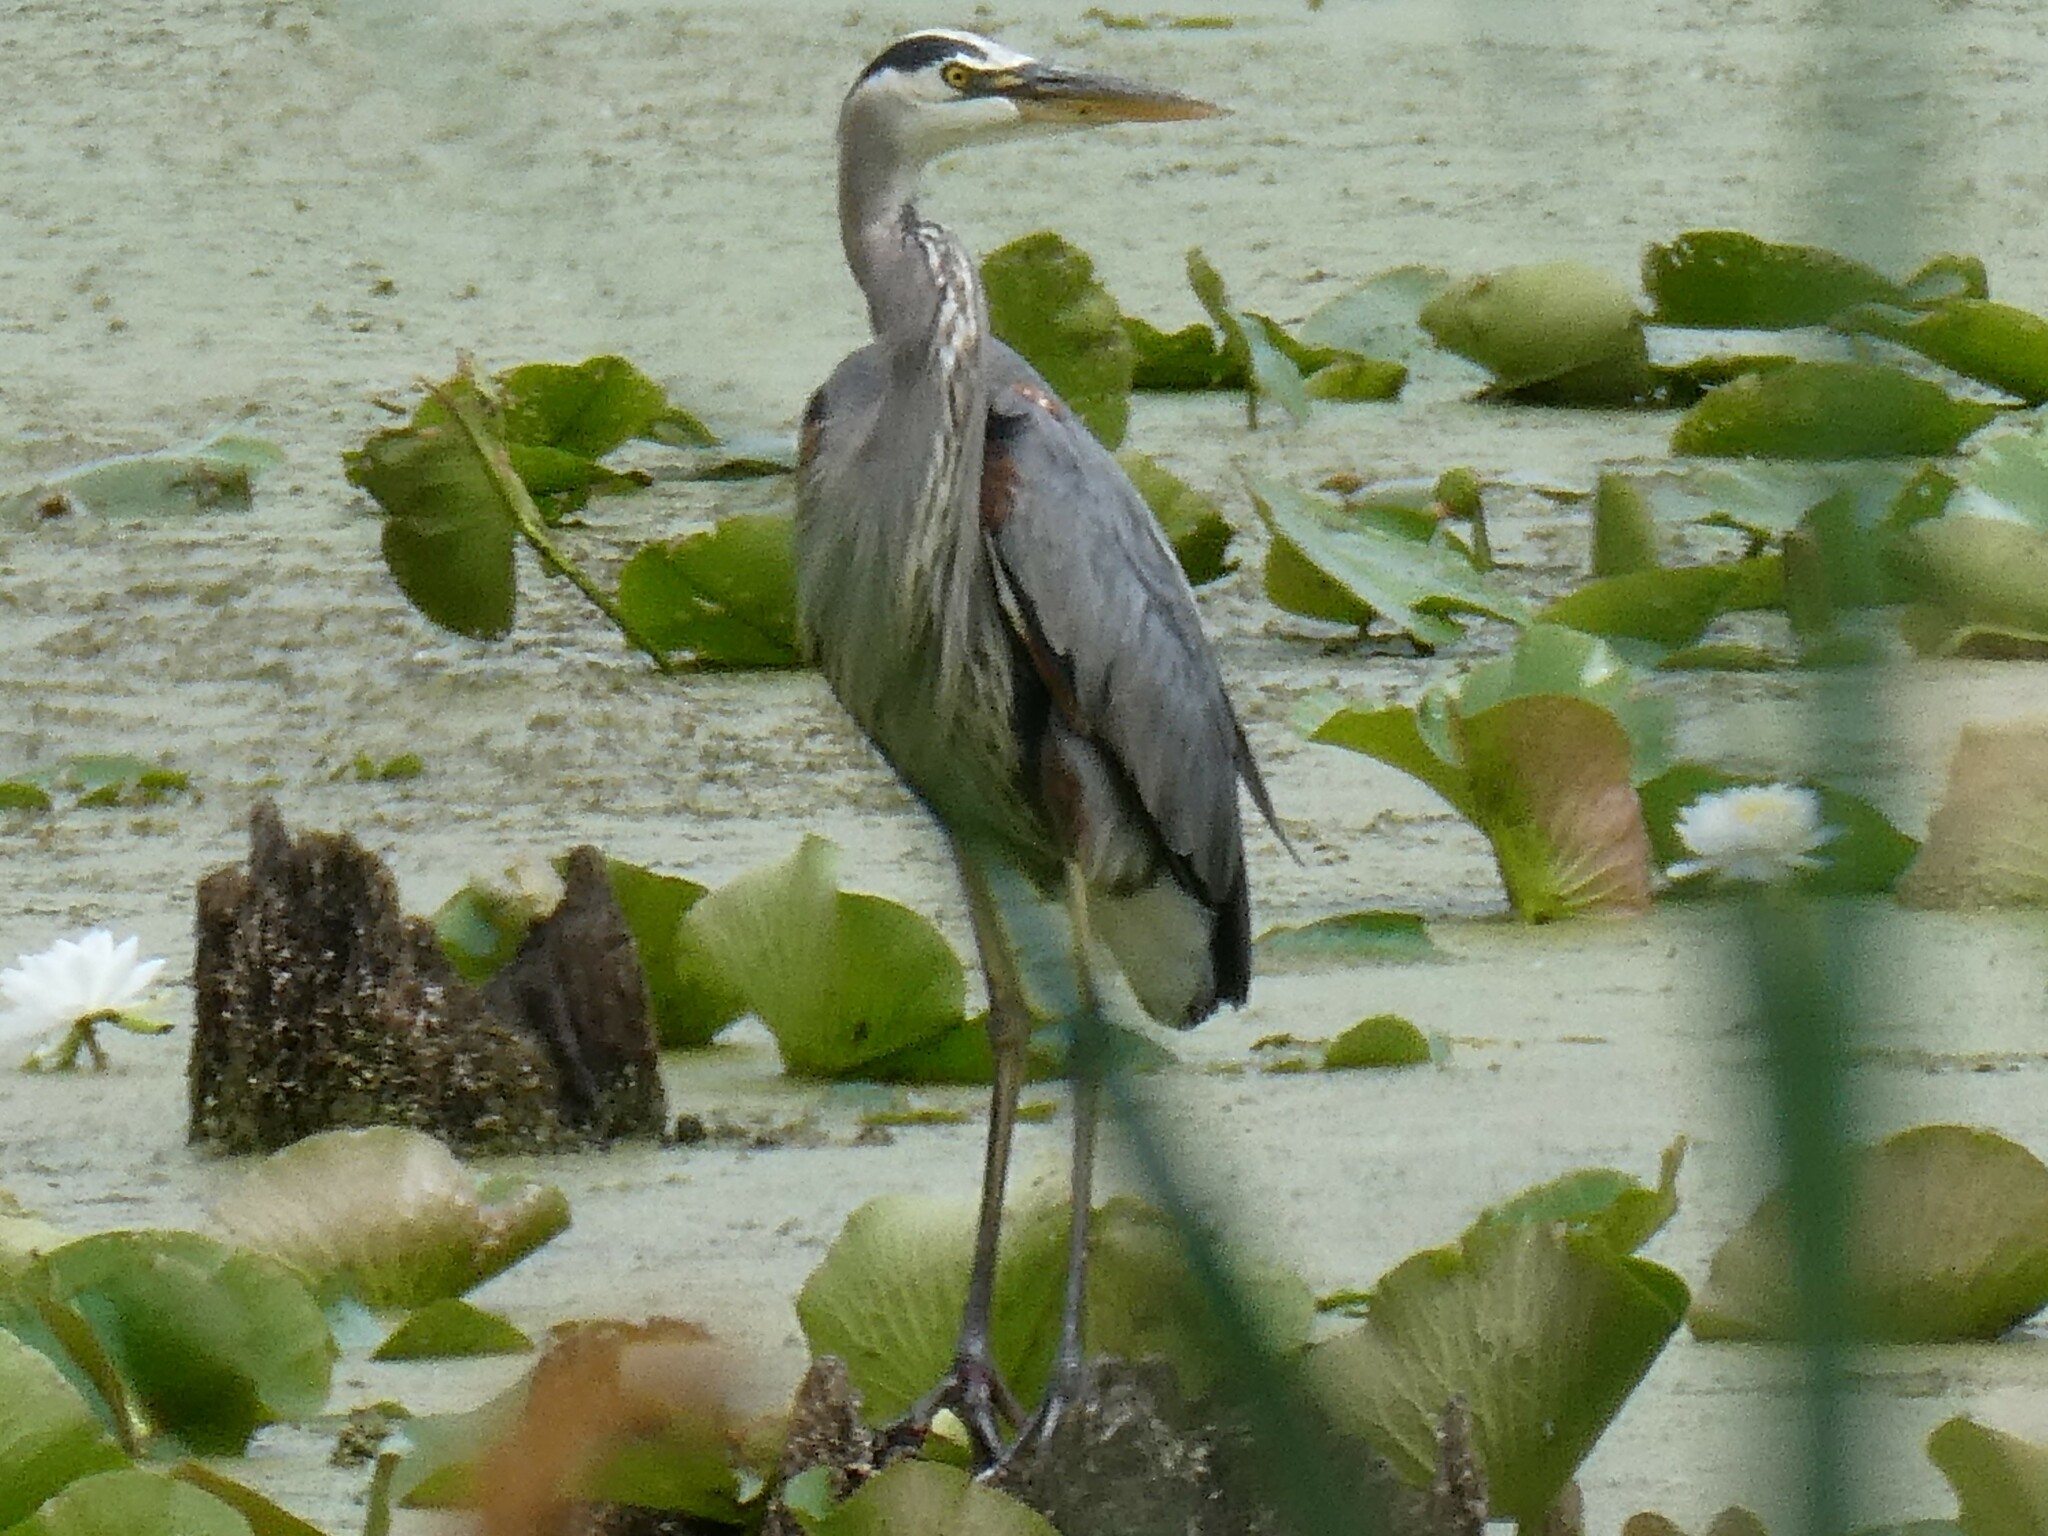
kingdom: Animalia
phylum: Chordata
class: Aves
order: Pelecaniformes
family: Ardeidae
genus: Ardea
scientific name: Ardea herodias
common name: Great blue heron
